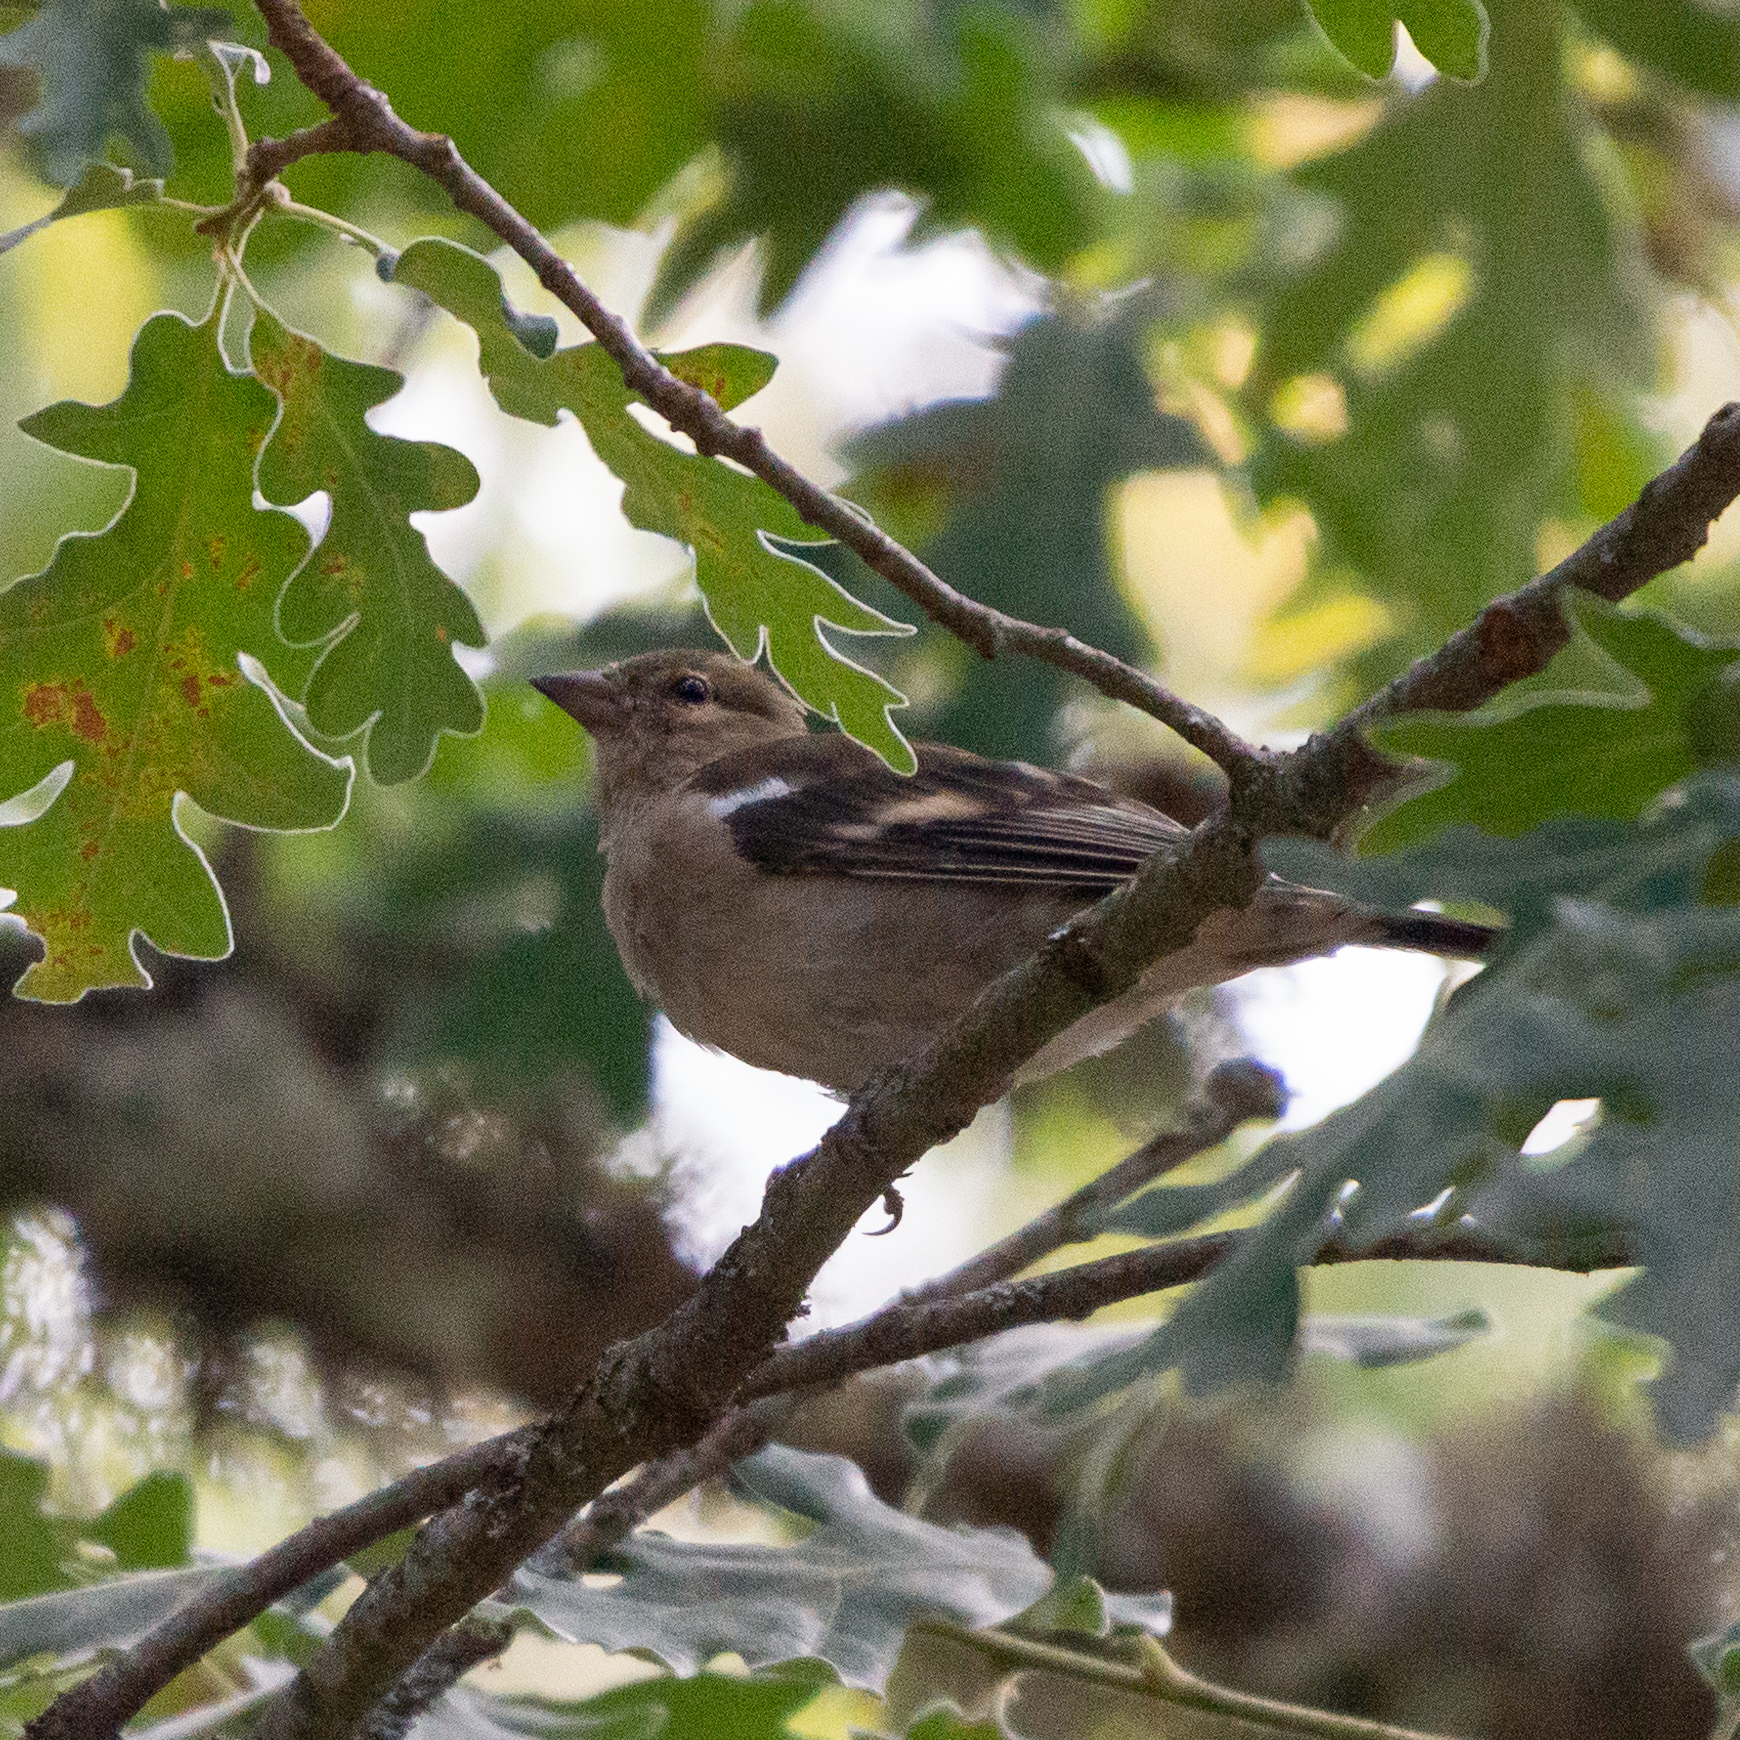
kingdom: Animalia
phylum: Chordata
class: Aves
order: Passeriformes
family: Fringillidae
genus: Fringilla
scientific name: Fringilla coelebs
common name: Common chaffinch
